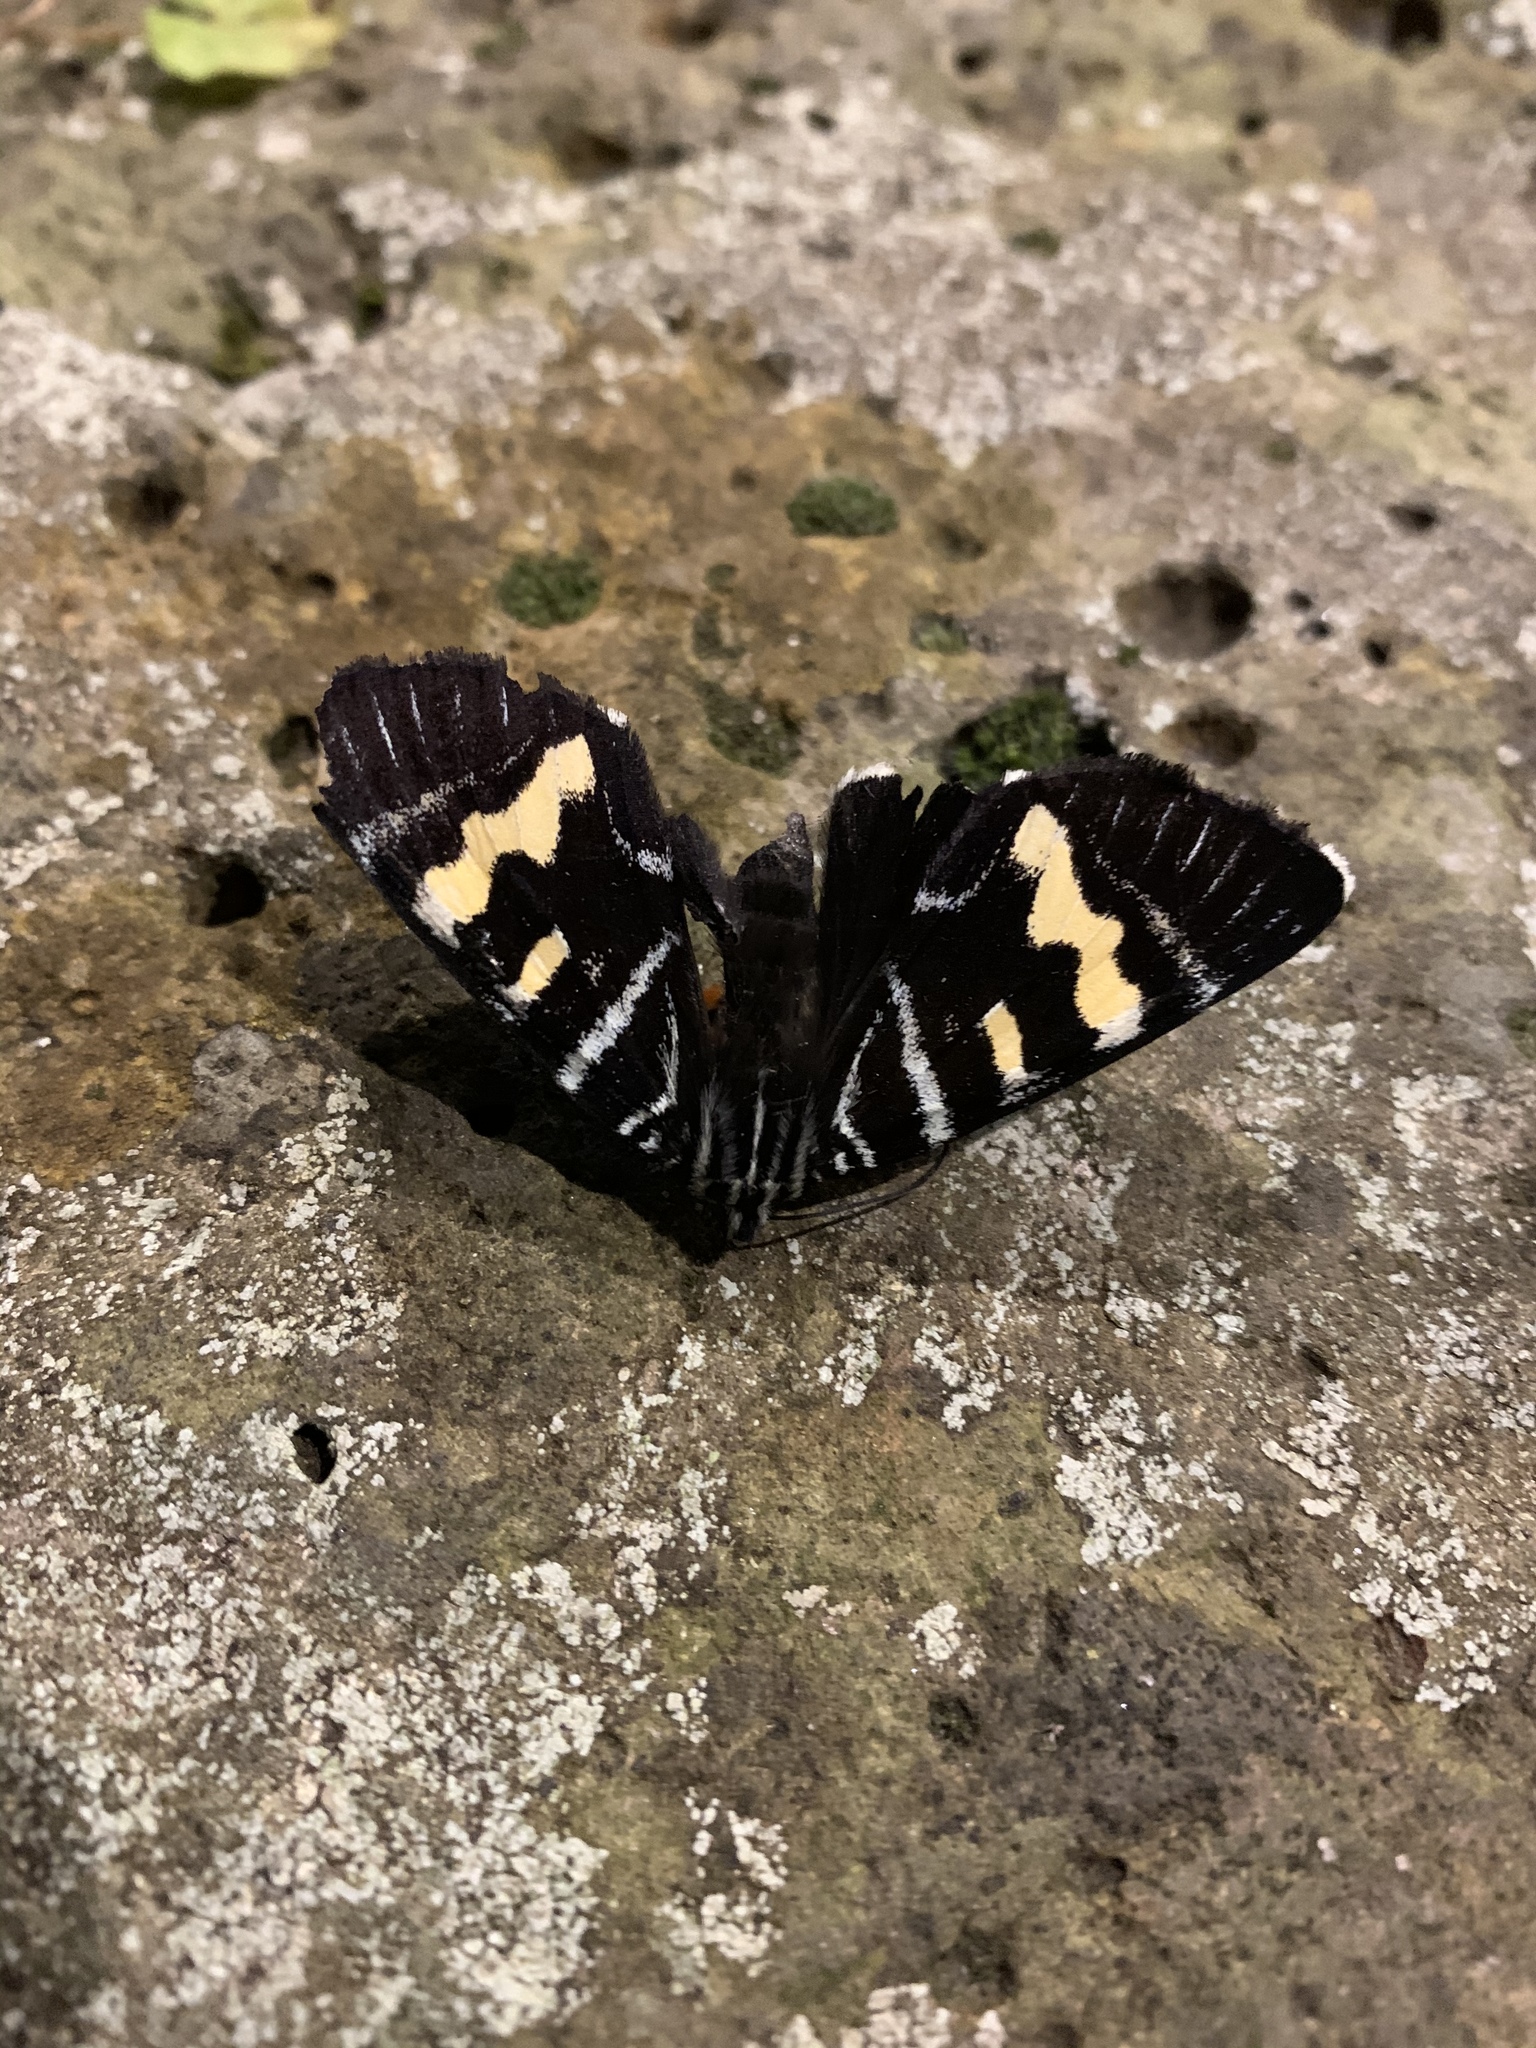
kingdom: Animalia
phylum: Arthropoda
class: Insecta
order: Lepidoptera
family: Noctuidae
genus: Phalaenoides
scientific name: Phalaenoides glycinae
